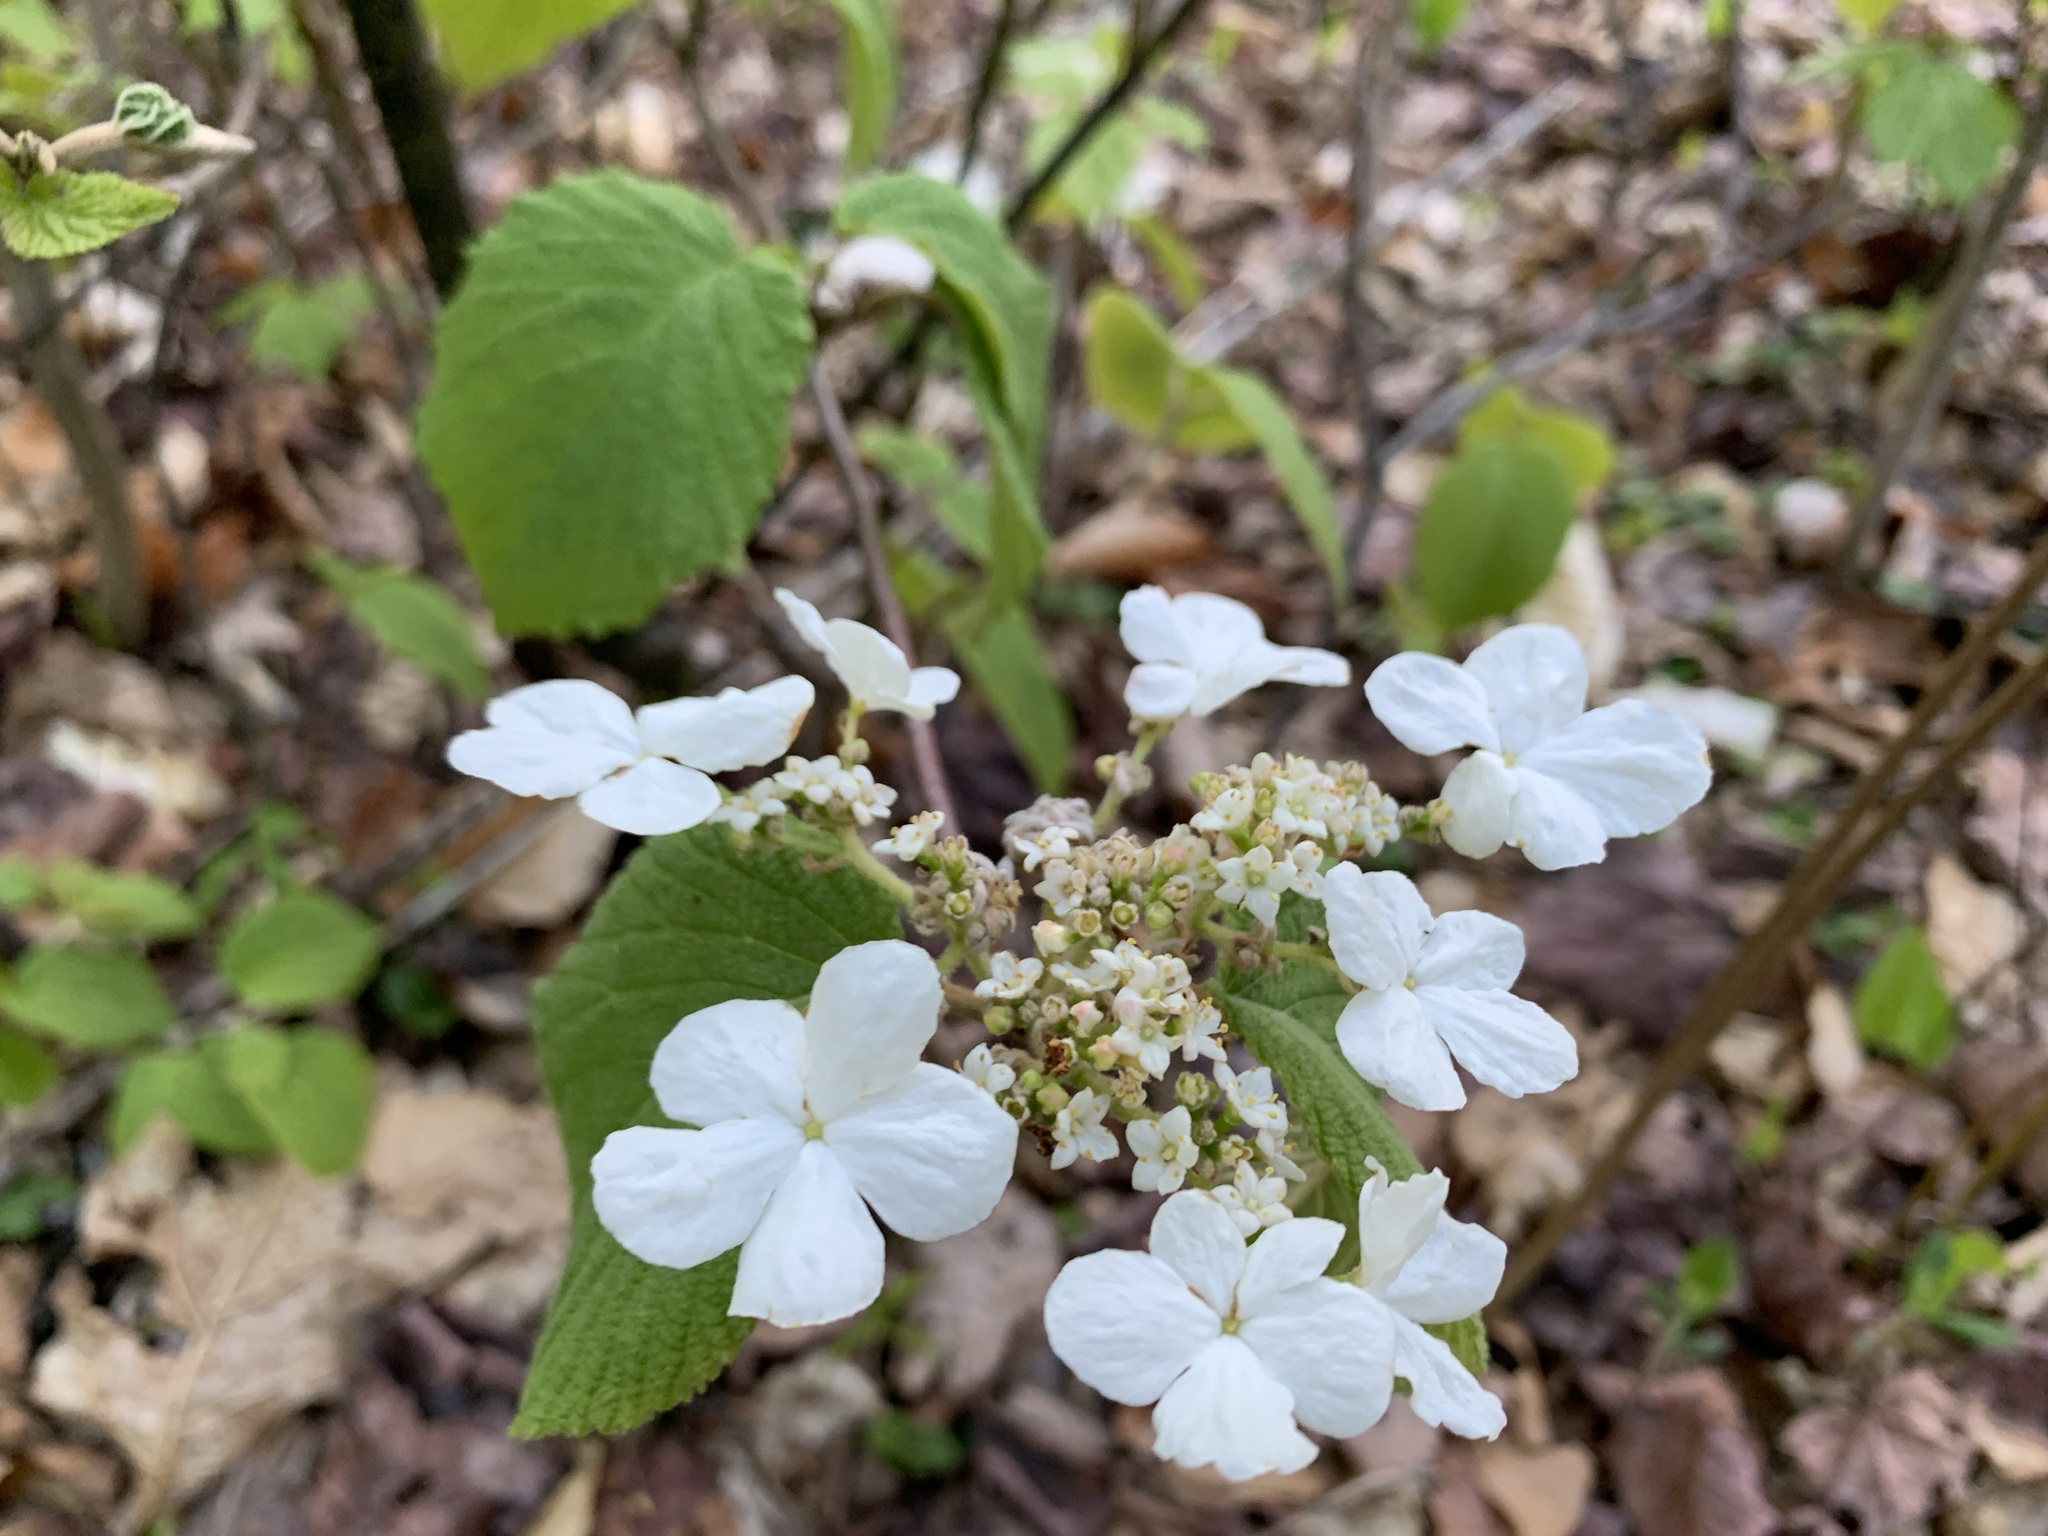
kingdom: Plantae
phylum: Tracheophyta
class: Magnoliopsida
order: Dipsacales
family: Viburnaceae
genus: Viburnum
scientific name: Viburnum lantanoides
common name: Hobblebush
